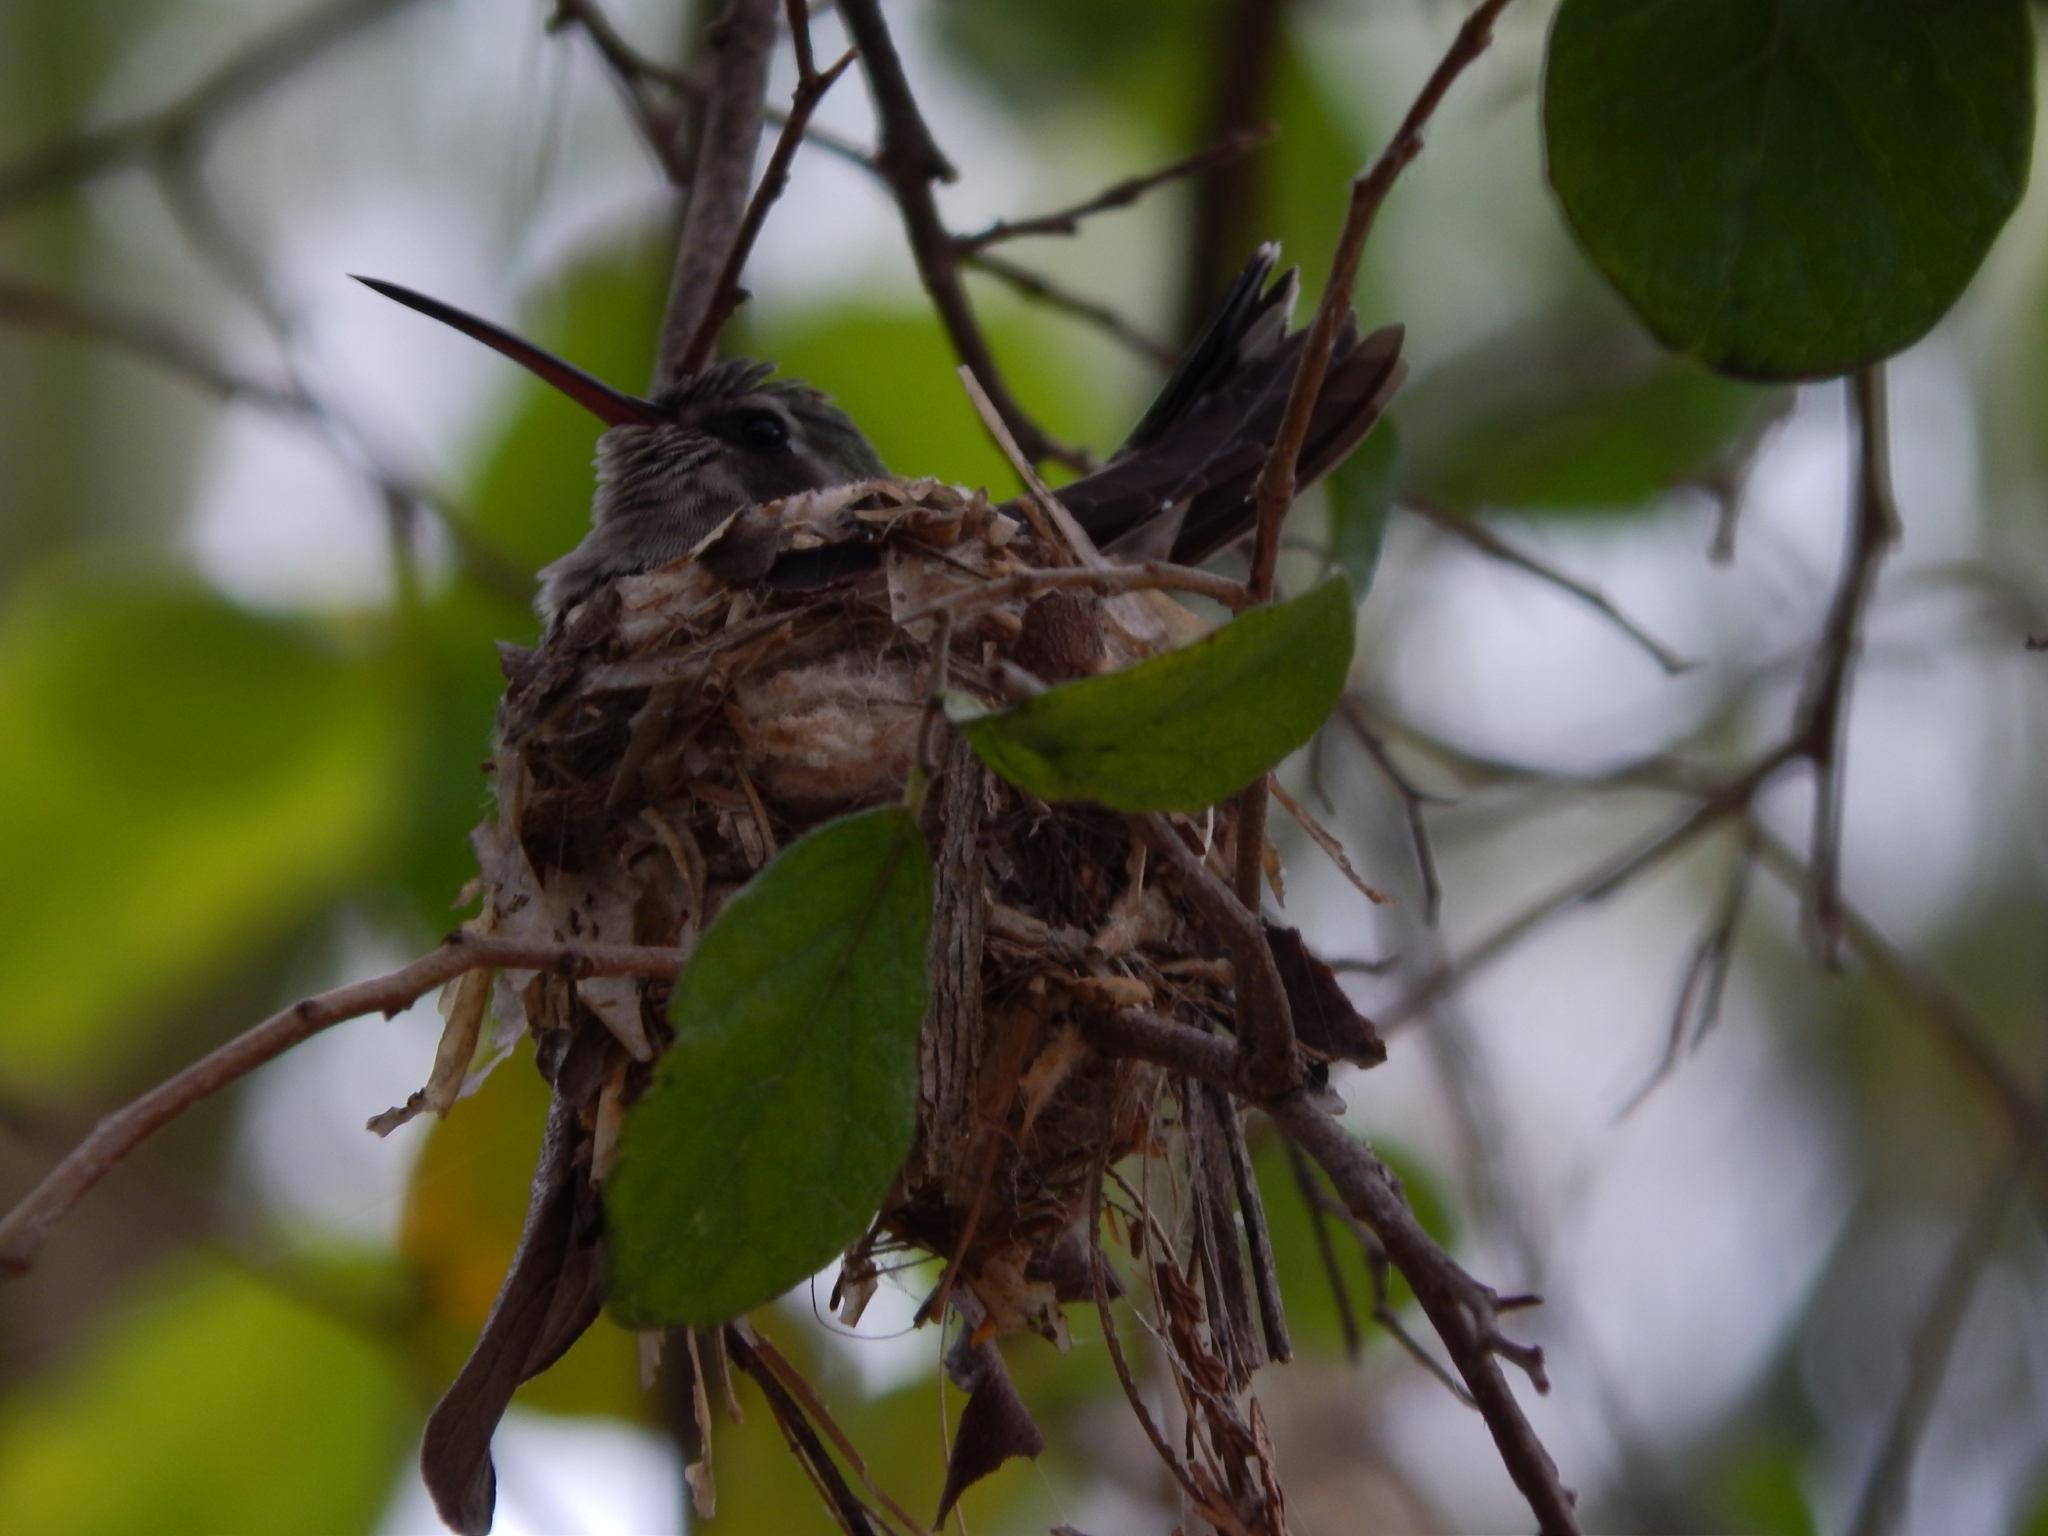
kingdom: Animalia
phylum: Chordata
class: Aves
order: Apodiformes
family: Trochilidae
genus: Cynanthus
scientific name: Cynanthus latirostris
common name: Broad-billed hummingbird
